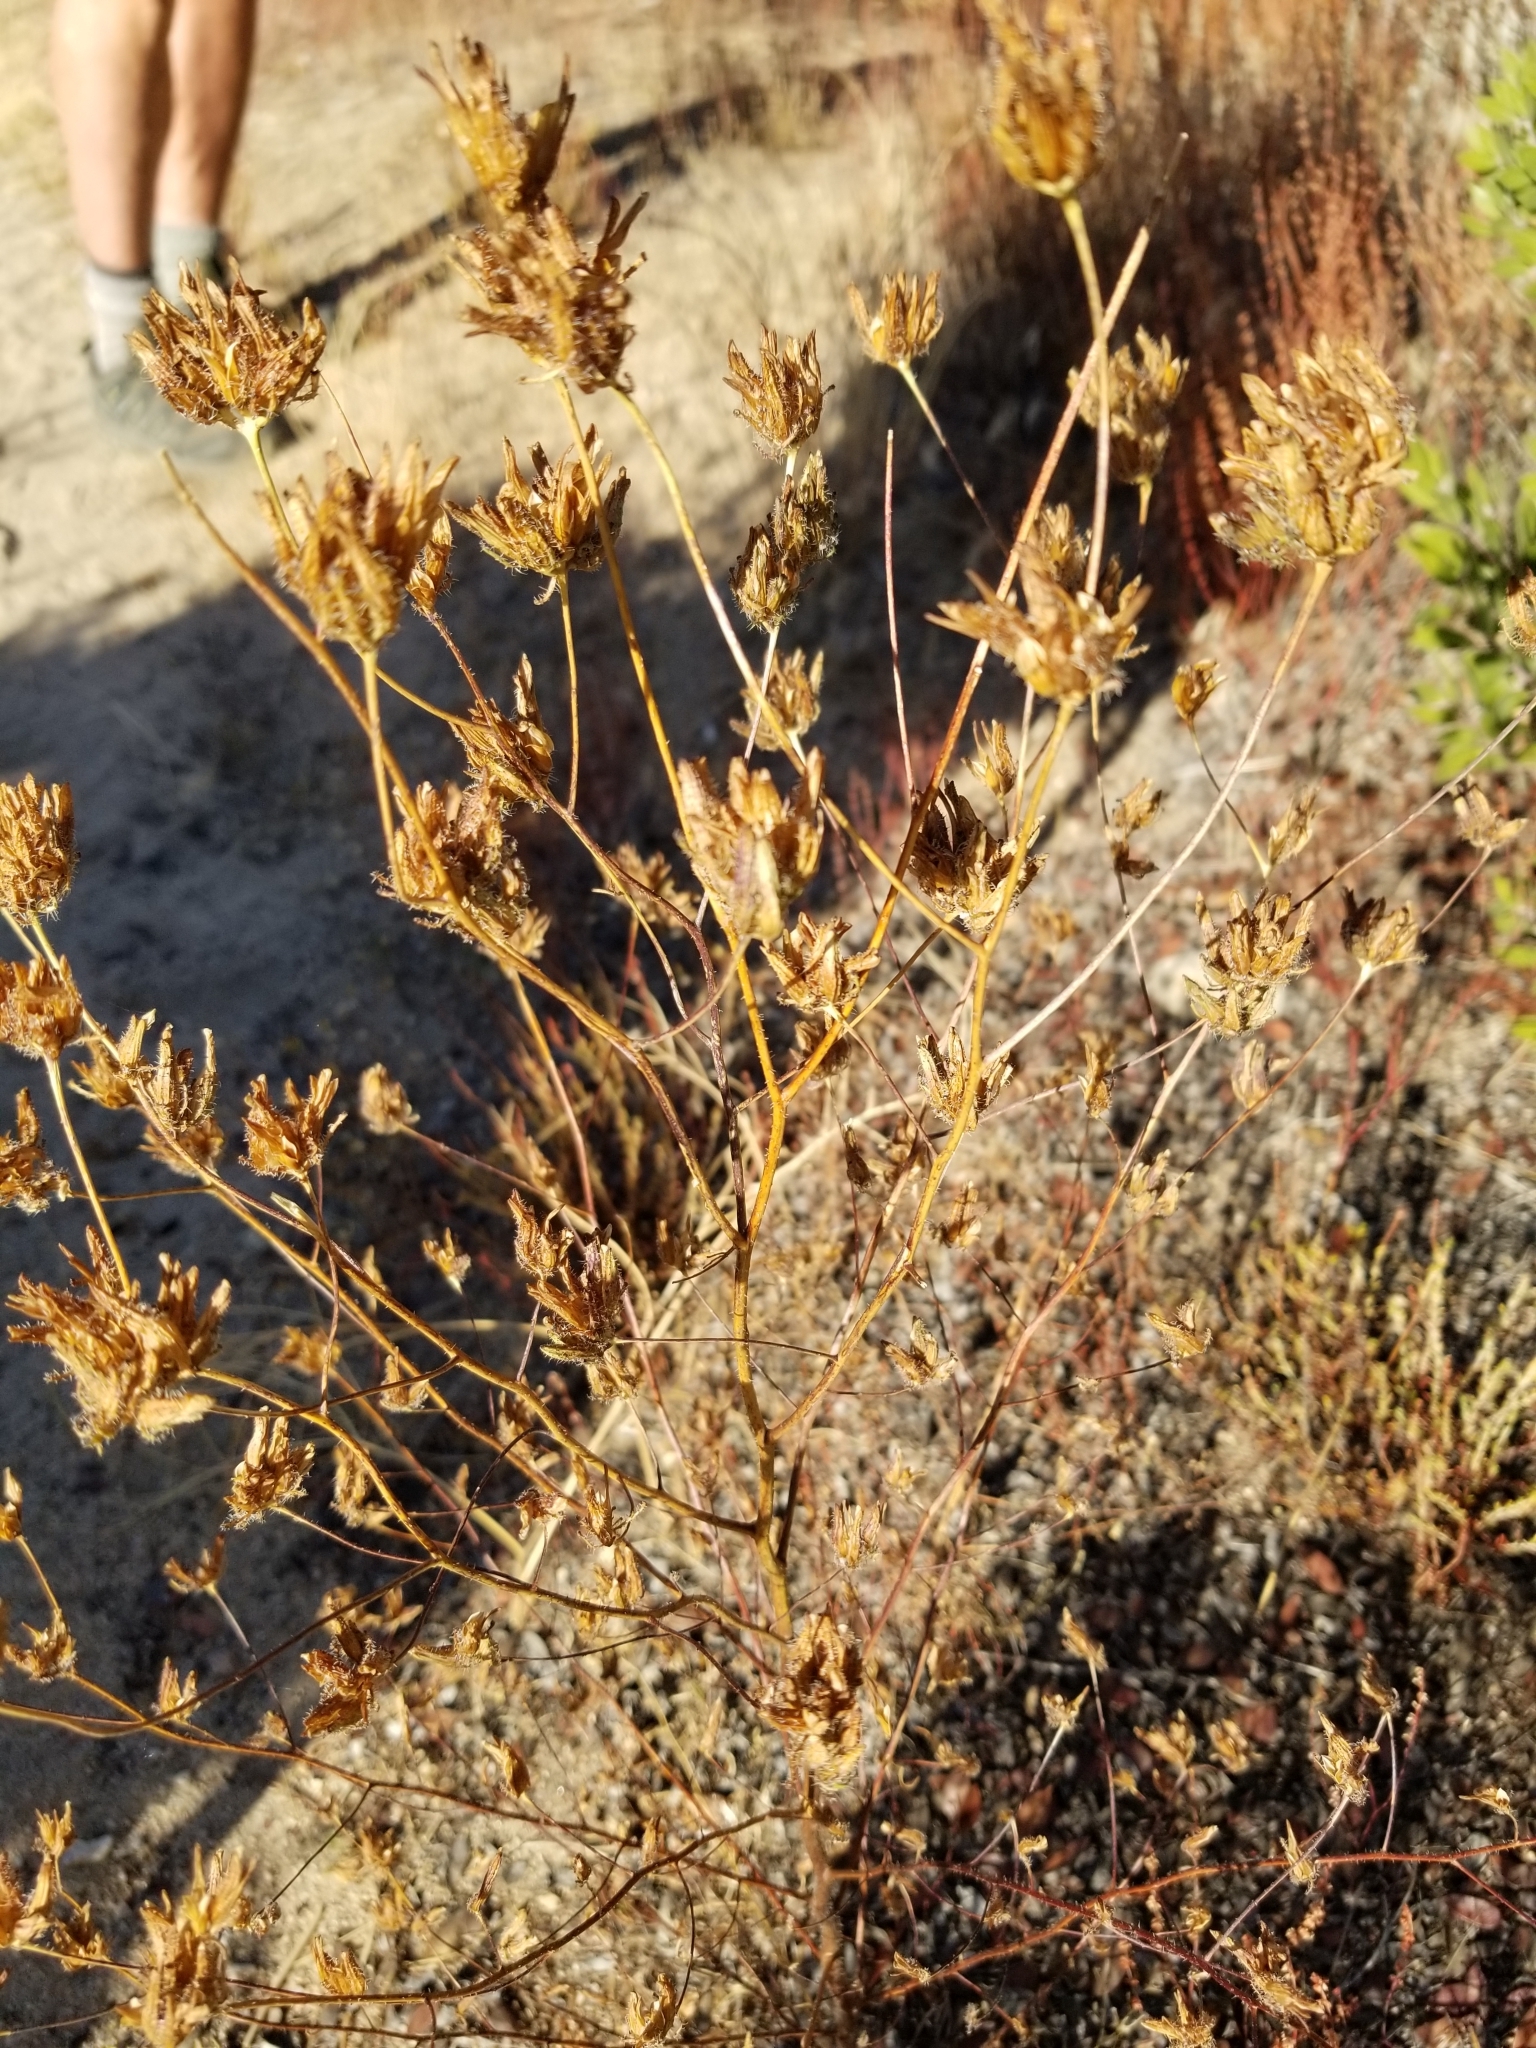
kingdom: Plantae
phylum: Tracheophyta
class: Magnoliopsida
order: Lamiales
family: Orobanchaceae
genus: Cordylanthus
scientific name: Cordylanthus rigidus
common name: Stiff-branch bird's-beak
